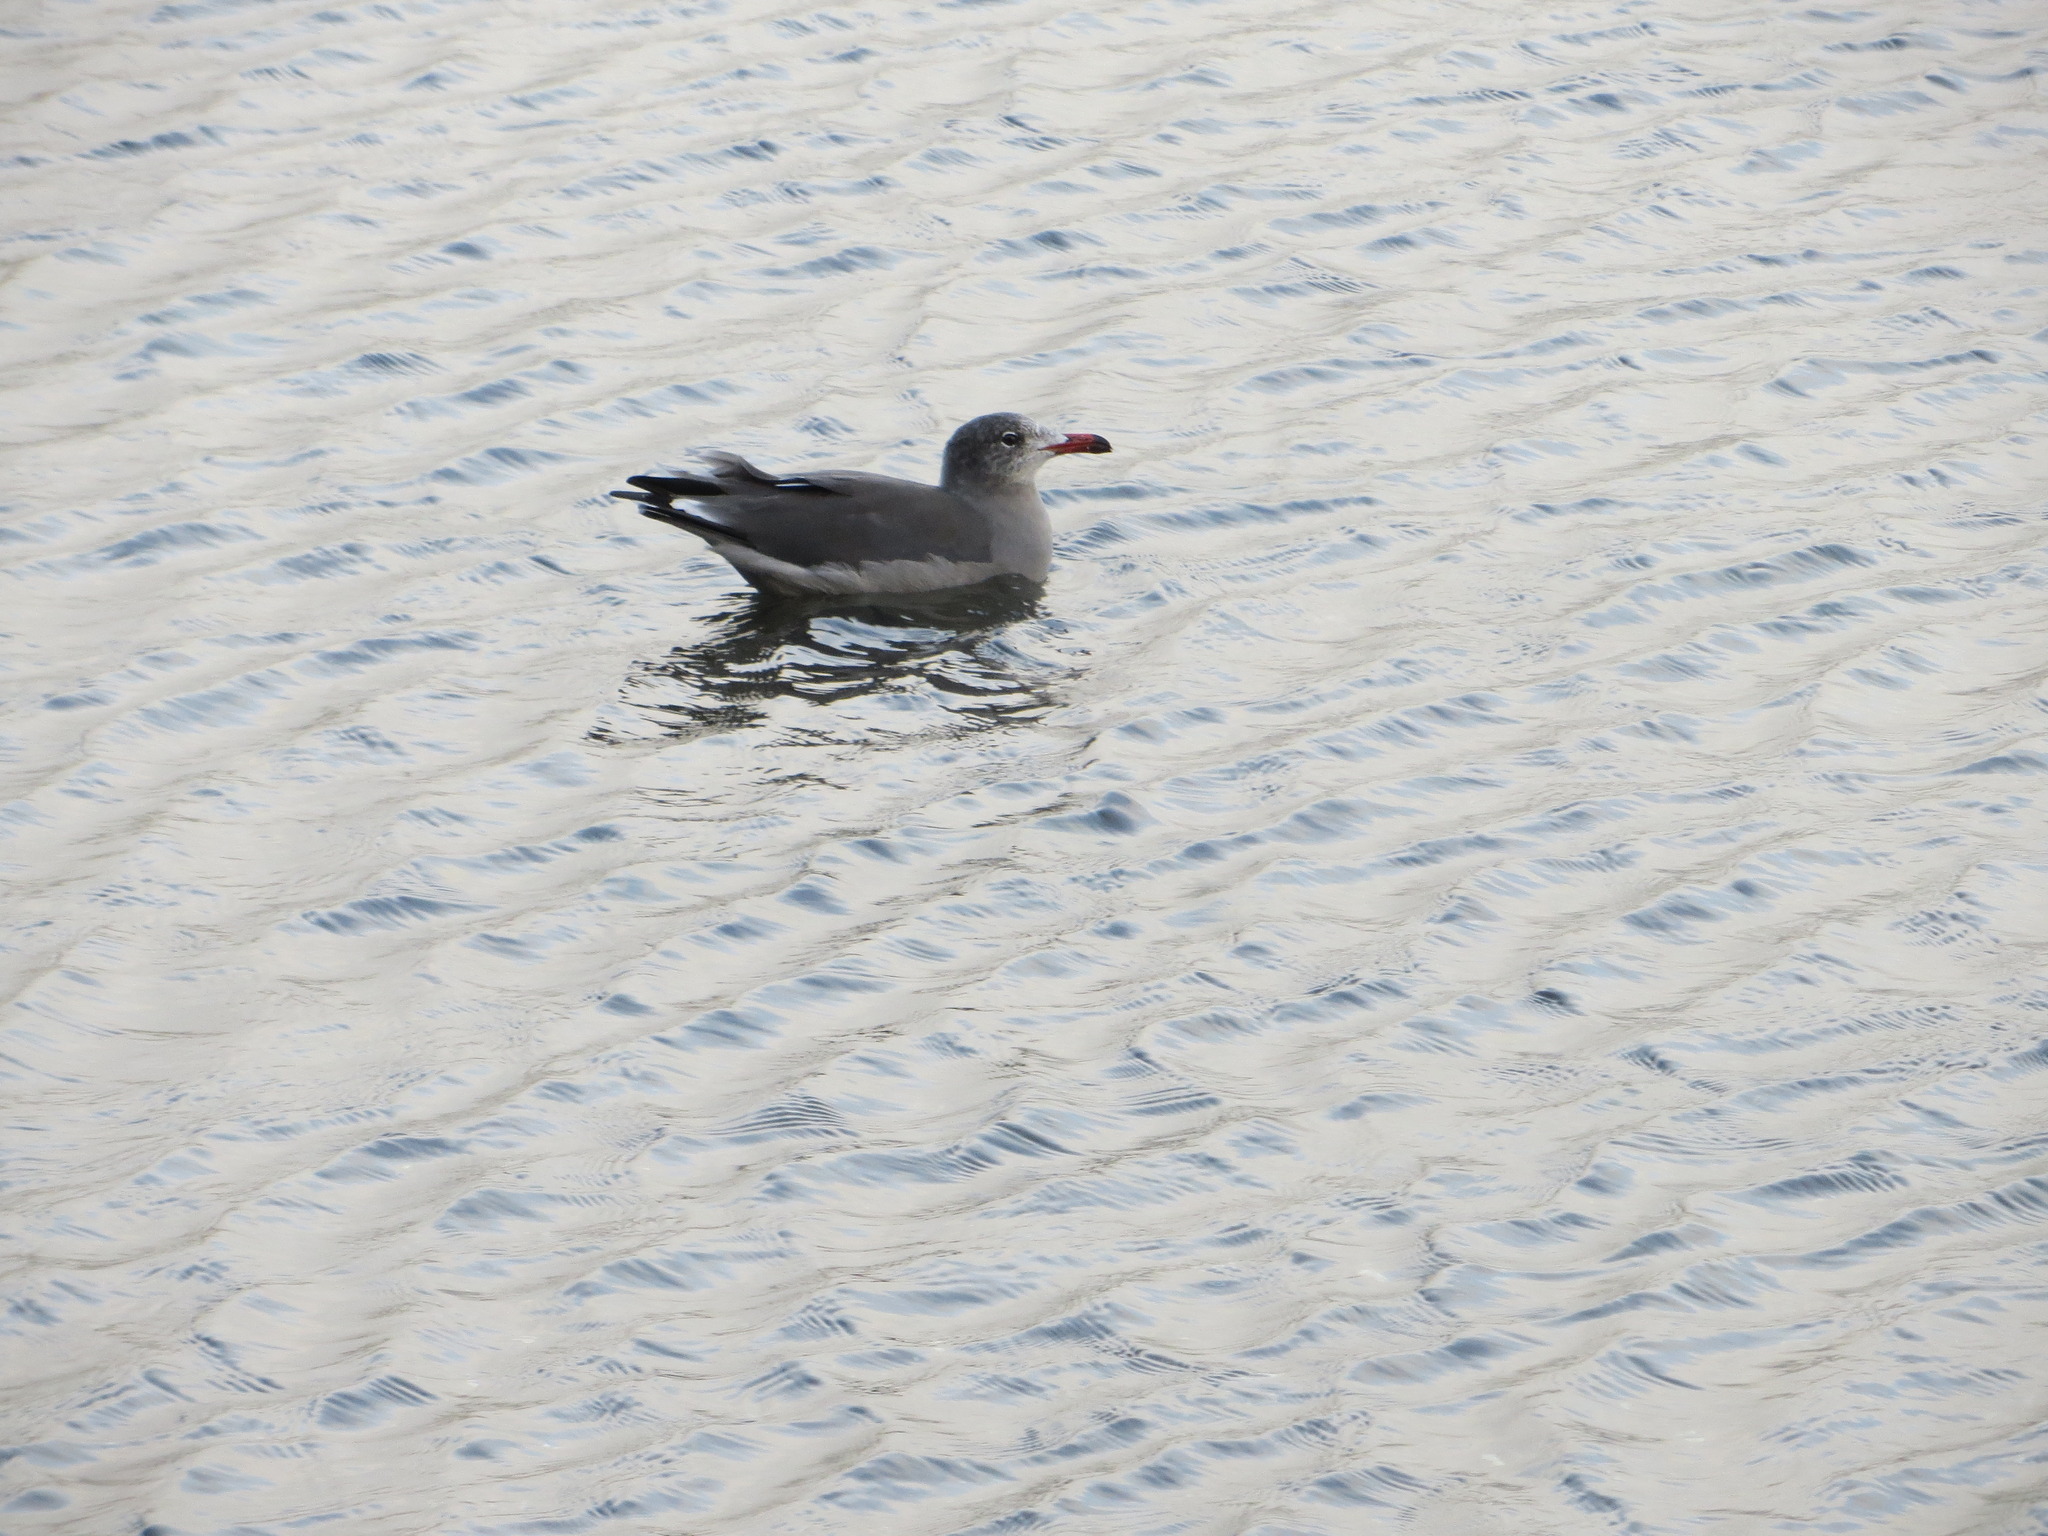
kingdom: Animalia
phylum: Chordata
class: Aves
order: Charadriiformes
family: Laridae
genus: Larus
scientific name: Larus heermanni
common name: Heermann's gull
